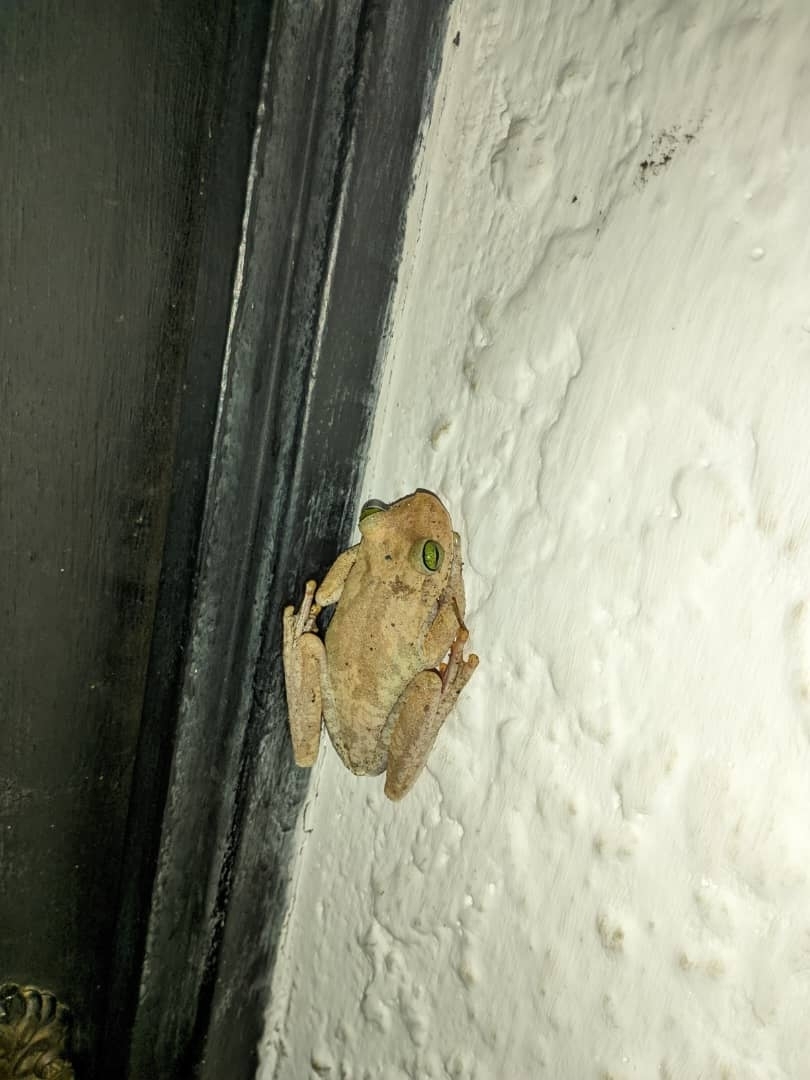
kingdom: Animalia
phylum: Chordata
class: Amphibia
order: Anura
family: Hylidae
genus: Boana
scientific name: Boana platanera
